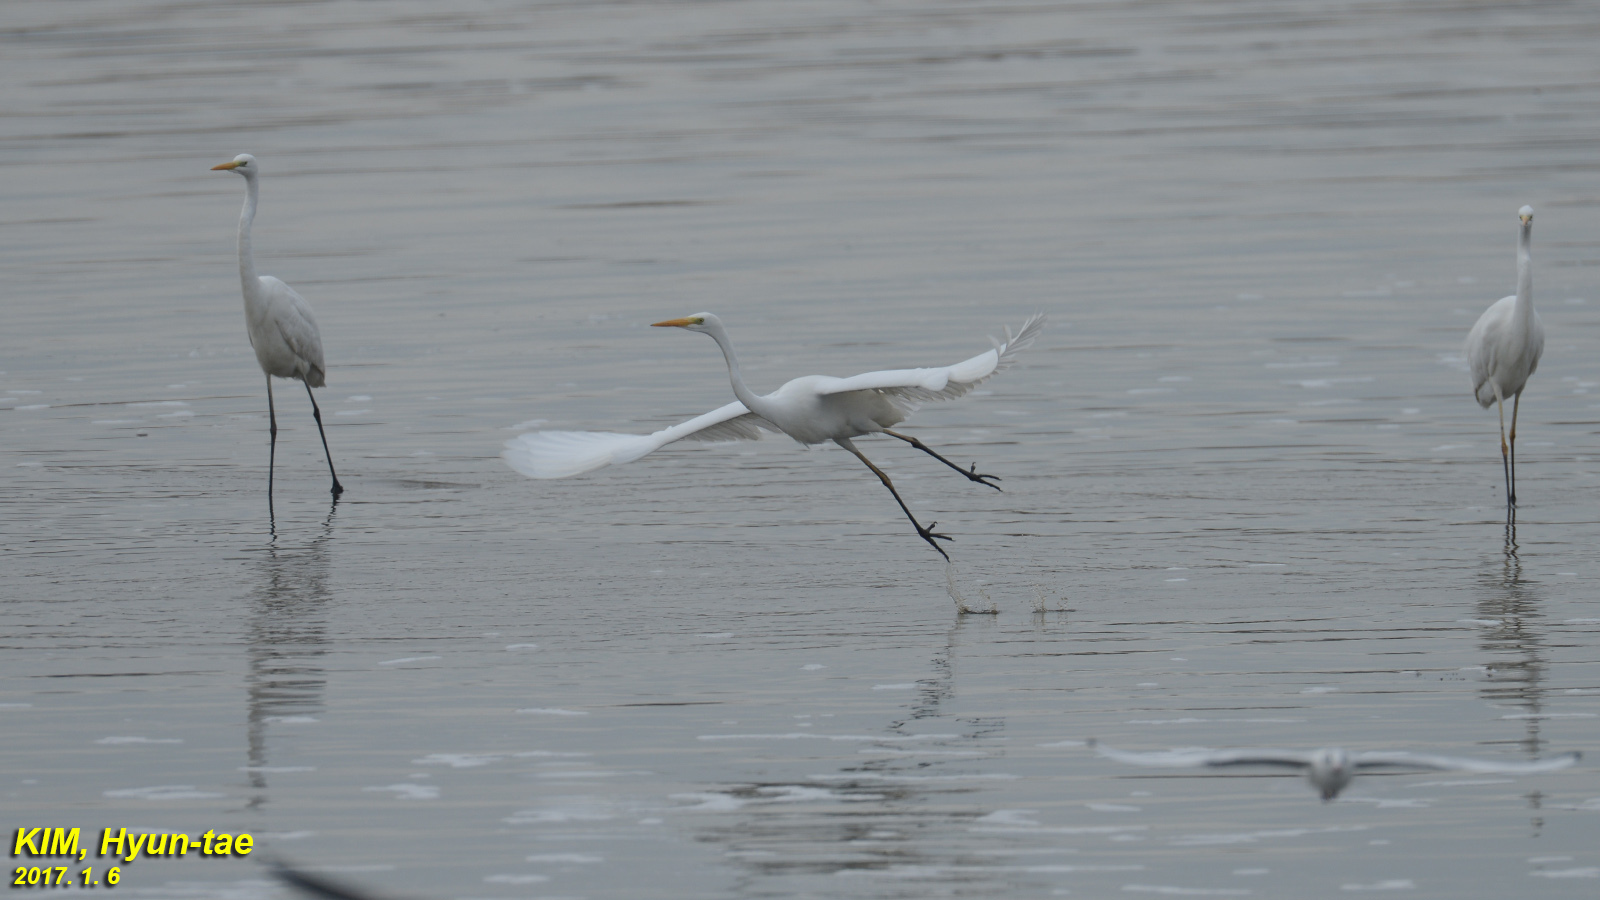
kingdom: Animalia
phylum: Chordata
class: Aves
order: Pelecaniformes
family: Ardeidae
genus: Ardea
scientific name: Ardea alba
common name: Great egret
